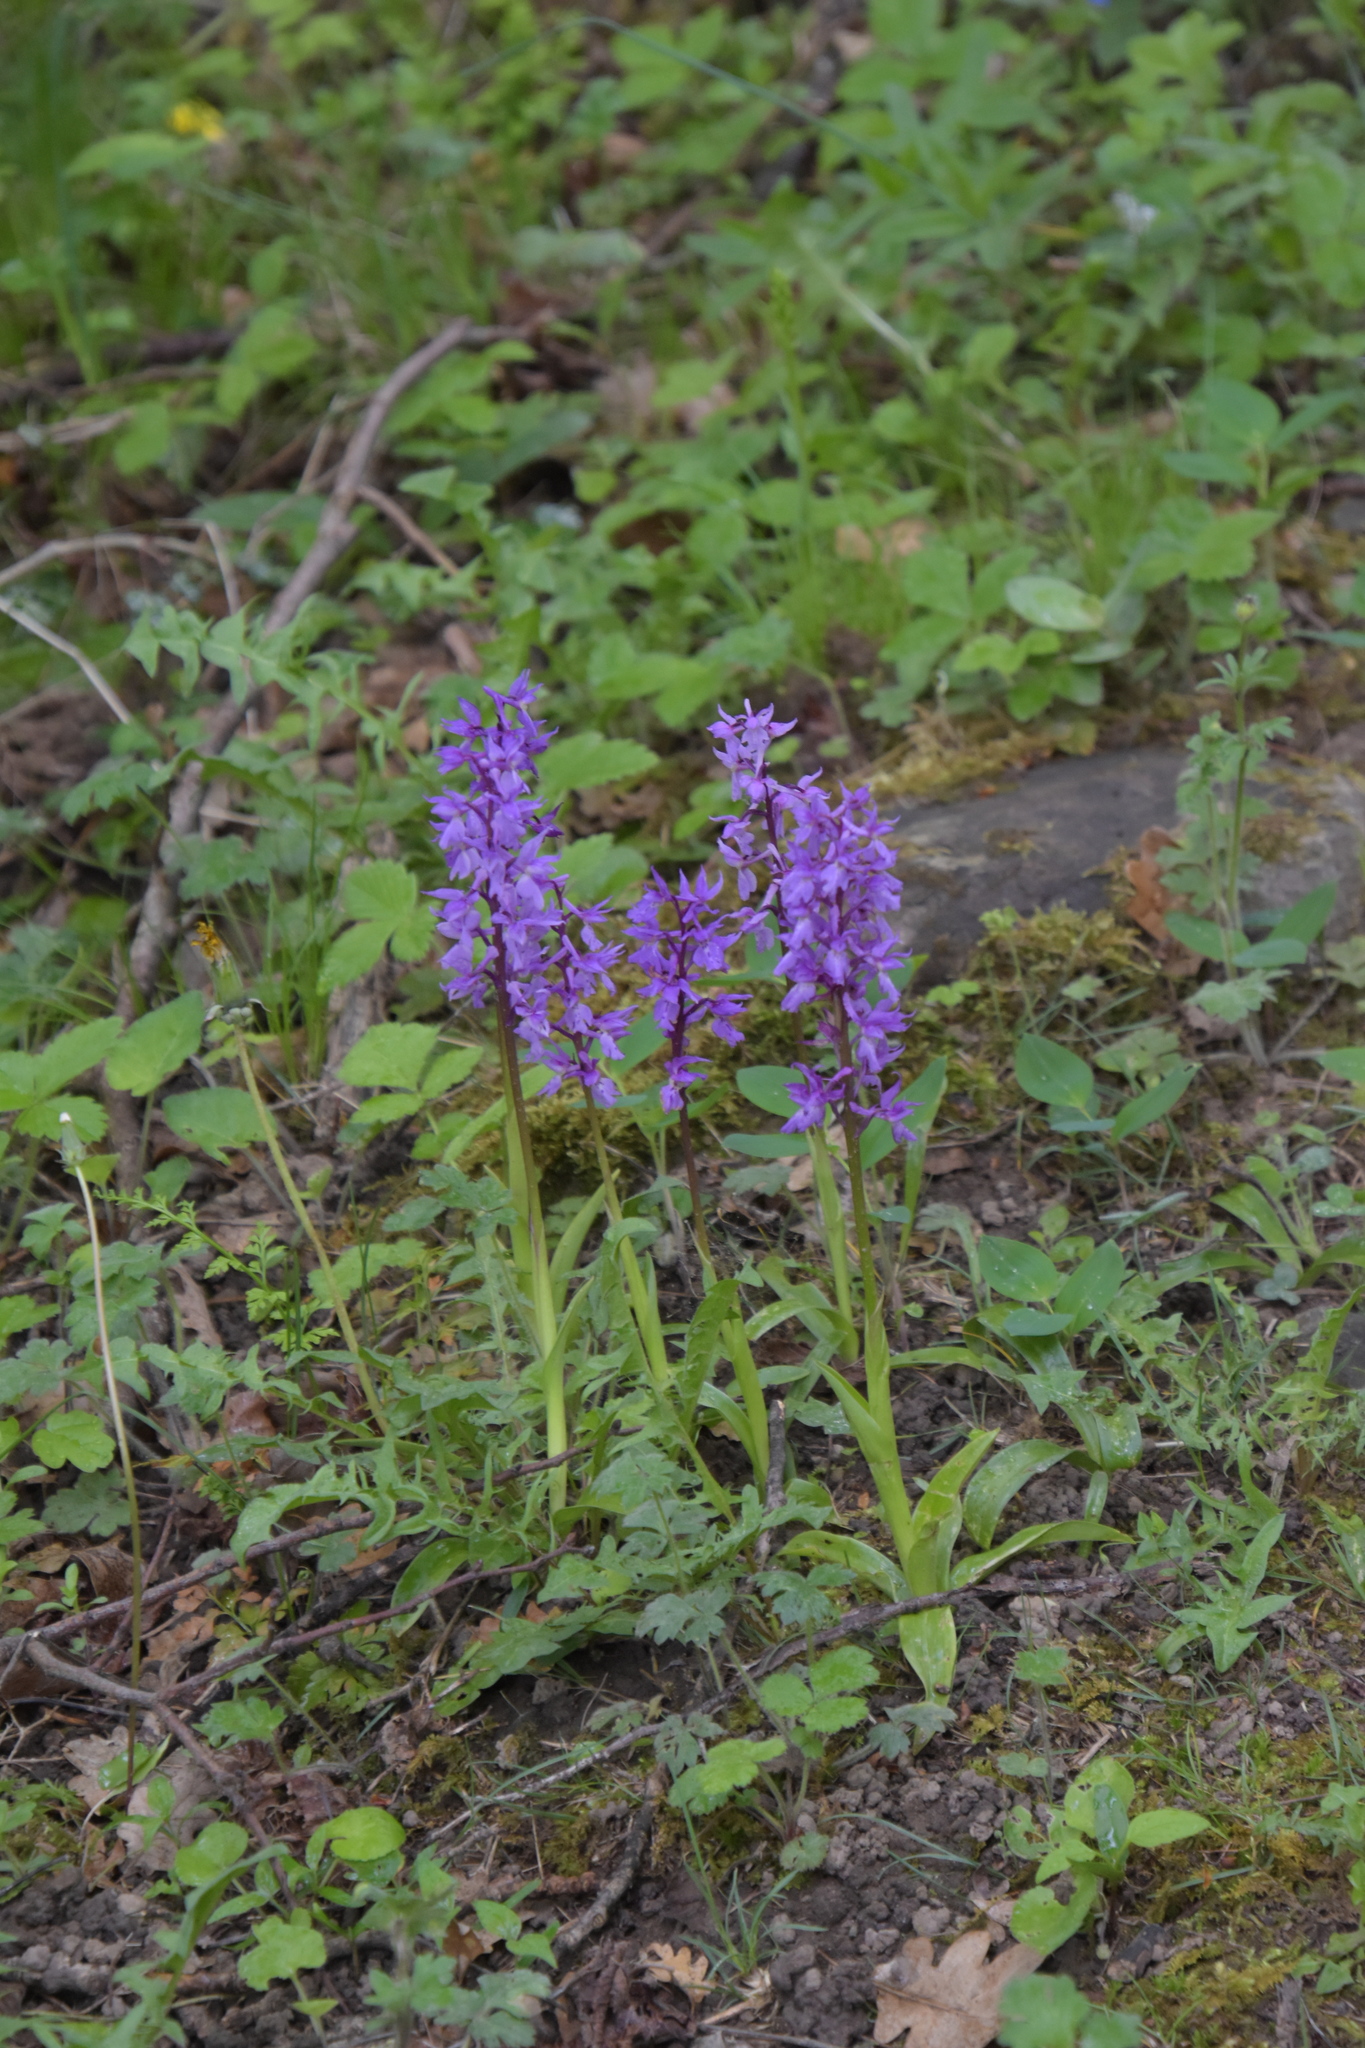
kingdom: Plantae
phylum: Tracheophyta
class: Liliopsida
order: Asparagales
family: Orchidaceae
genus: Orchis
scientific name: Orchis mascula
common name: Early-purple orchid
